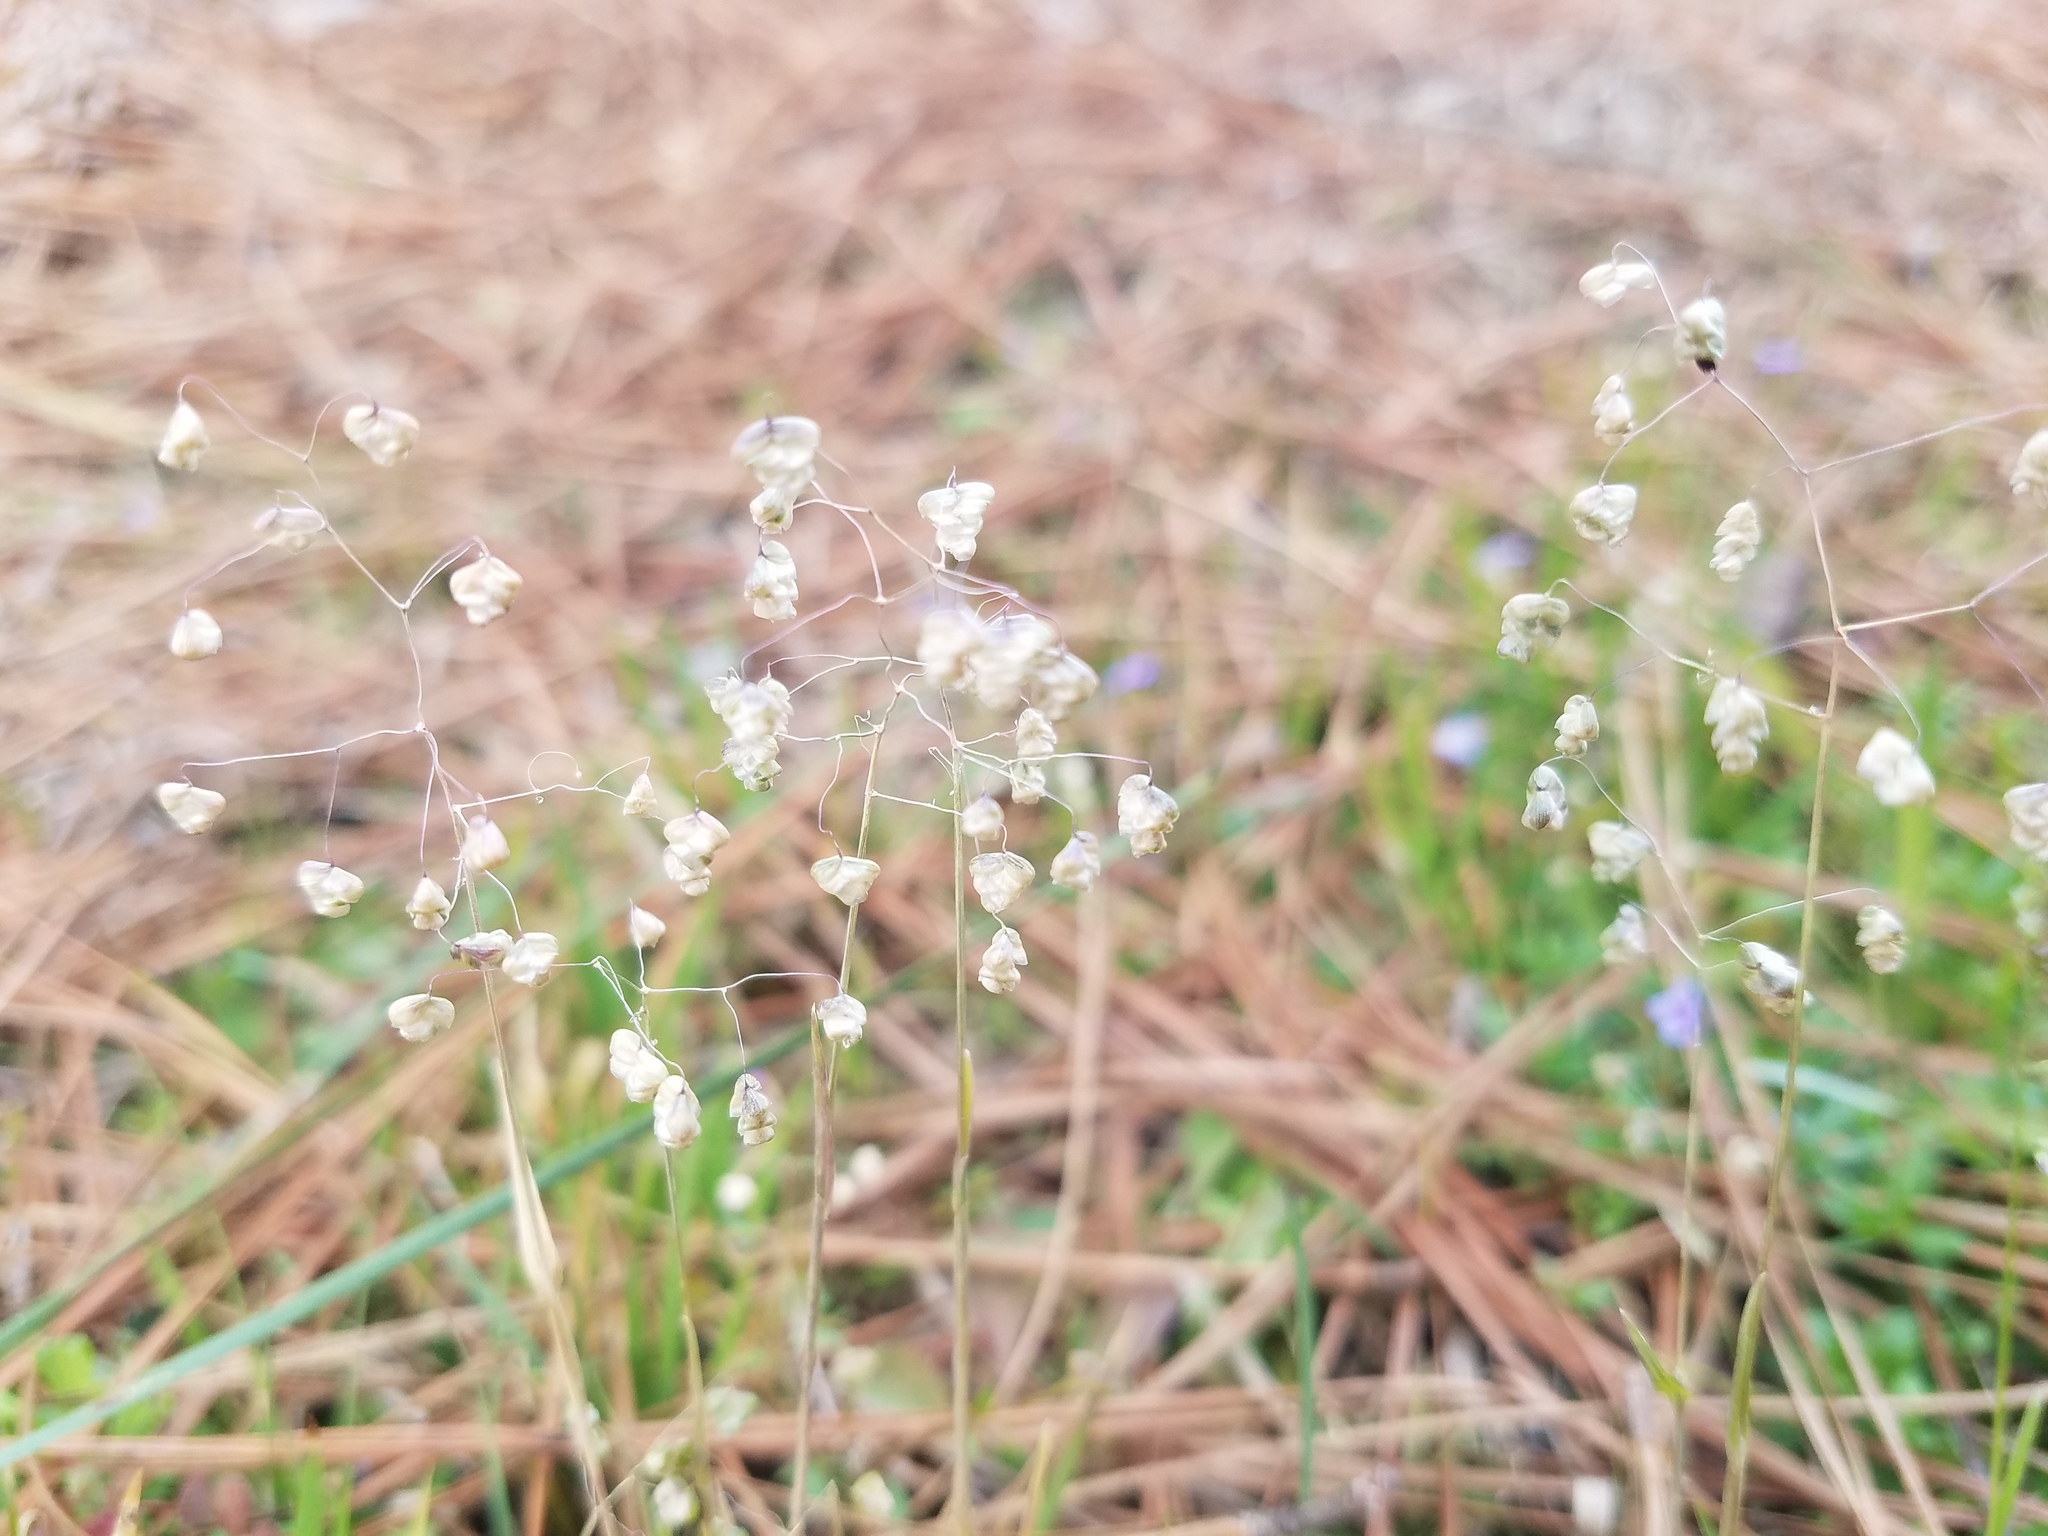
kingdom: Plantae
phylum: Tracheophyta
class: Liliopsida
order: Poales
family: Poaceae
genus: Briza
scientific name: Briza minor
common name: Lesser quaking-grass
